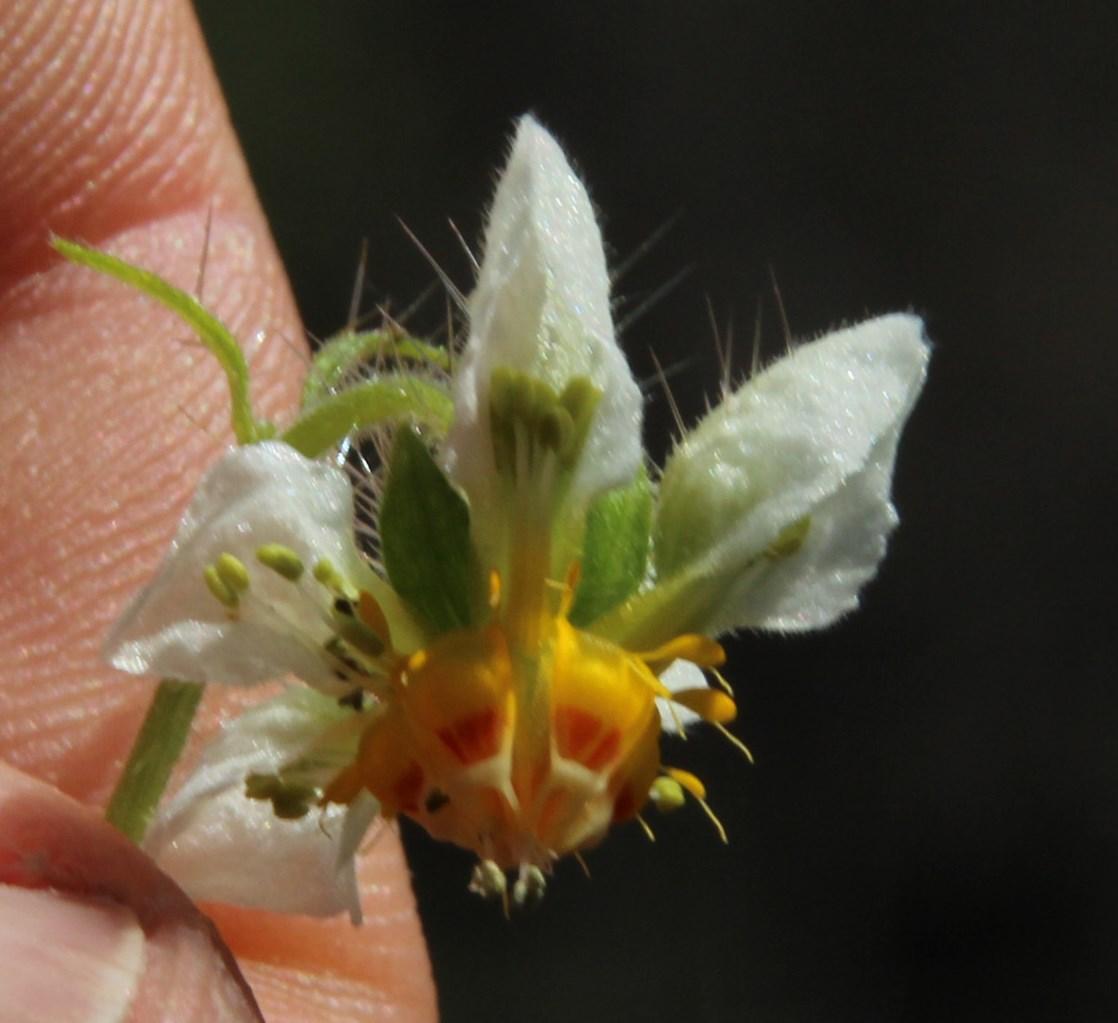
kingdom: Plantae
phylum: Tracheophyta
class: Magnoliopsida
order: Cornales
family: Loasaceae
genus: Loasa
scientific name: Loasa triloba
